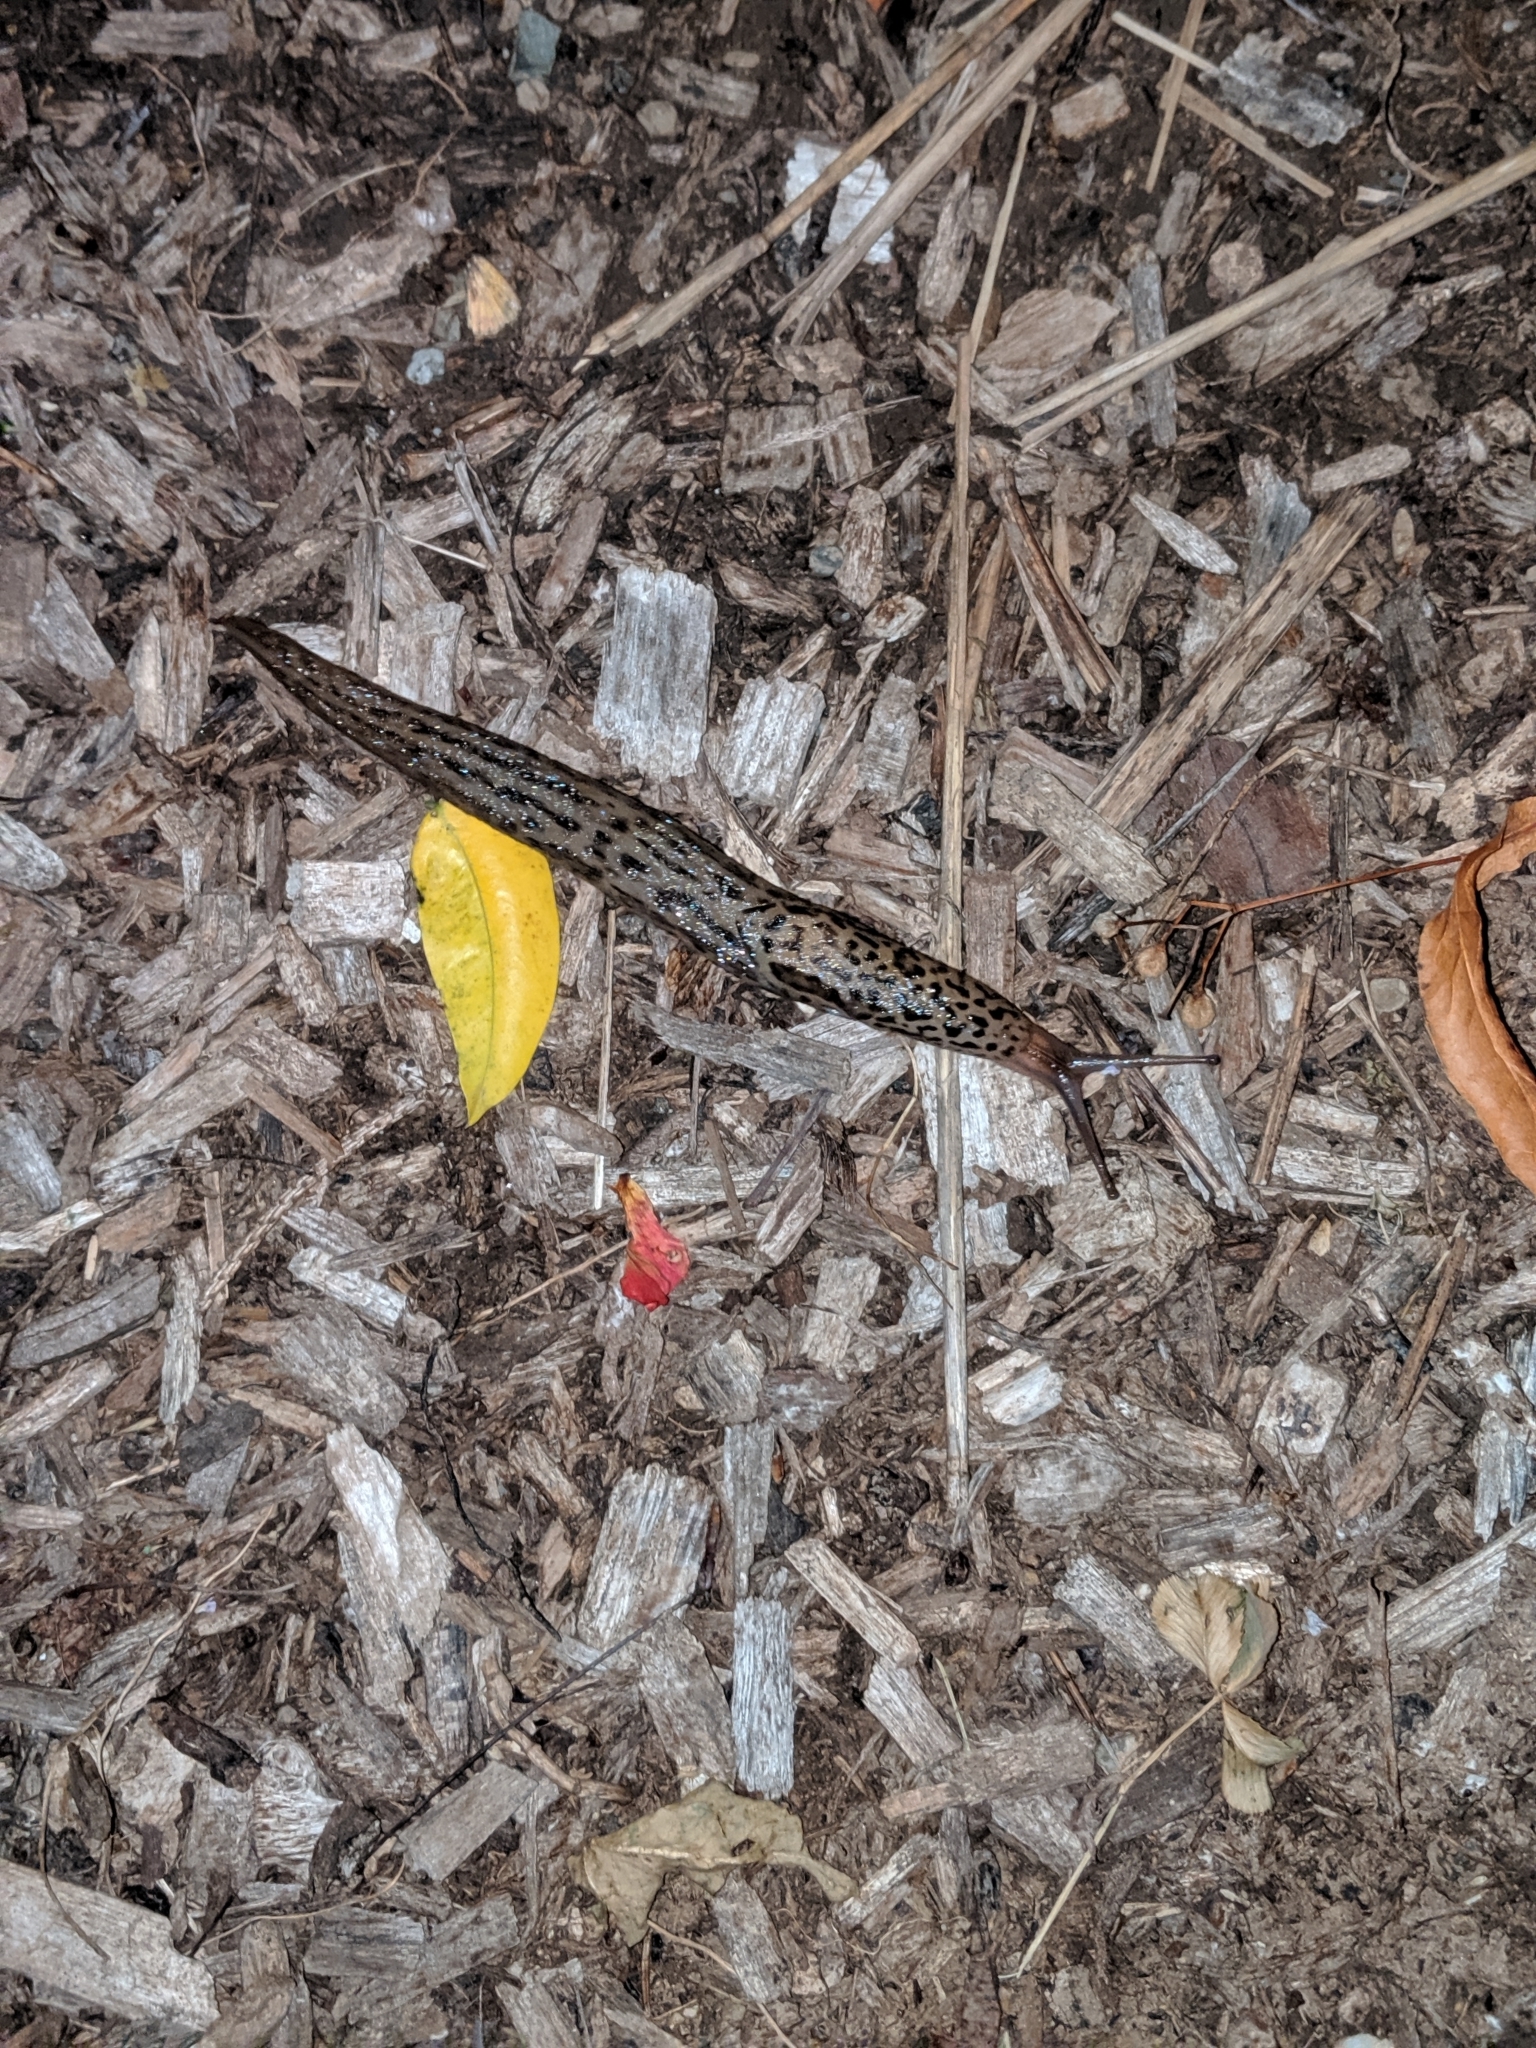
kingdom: Animalia
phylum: Mollusca
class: Gastropoda
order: Stylommatophora
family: Limacidae
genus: Limax
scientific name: Limax maximus
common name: Great grey slug
